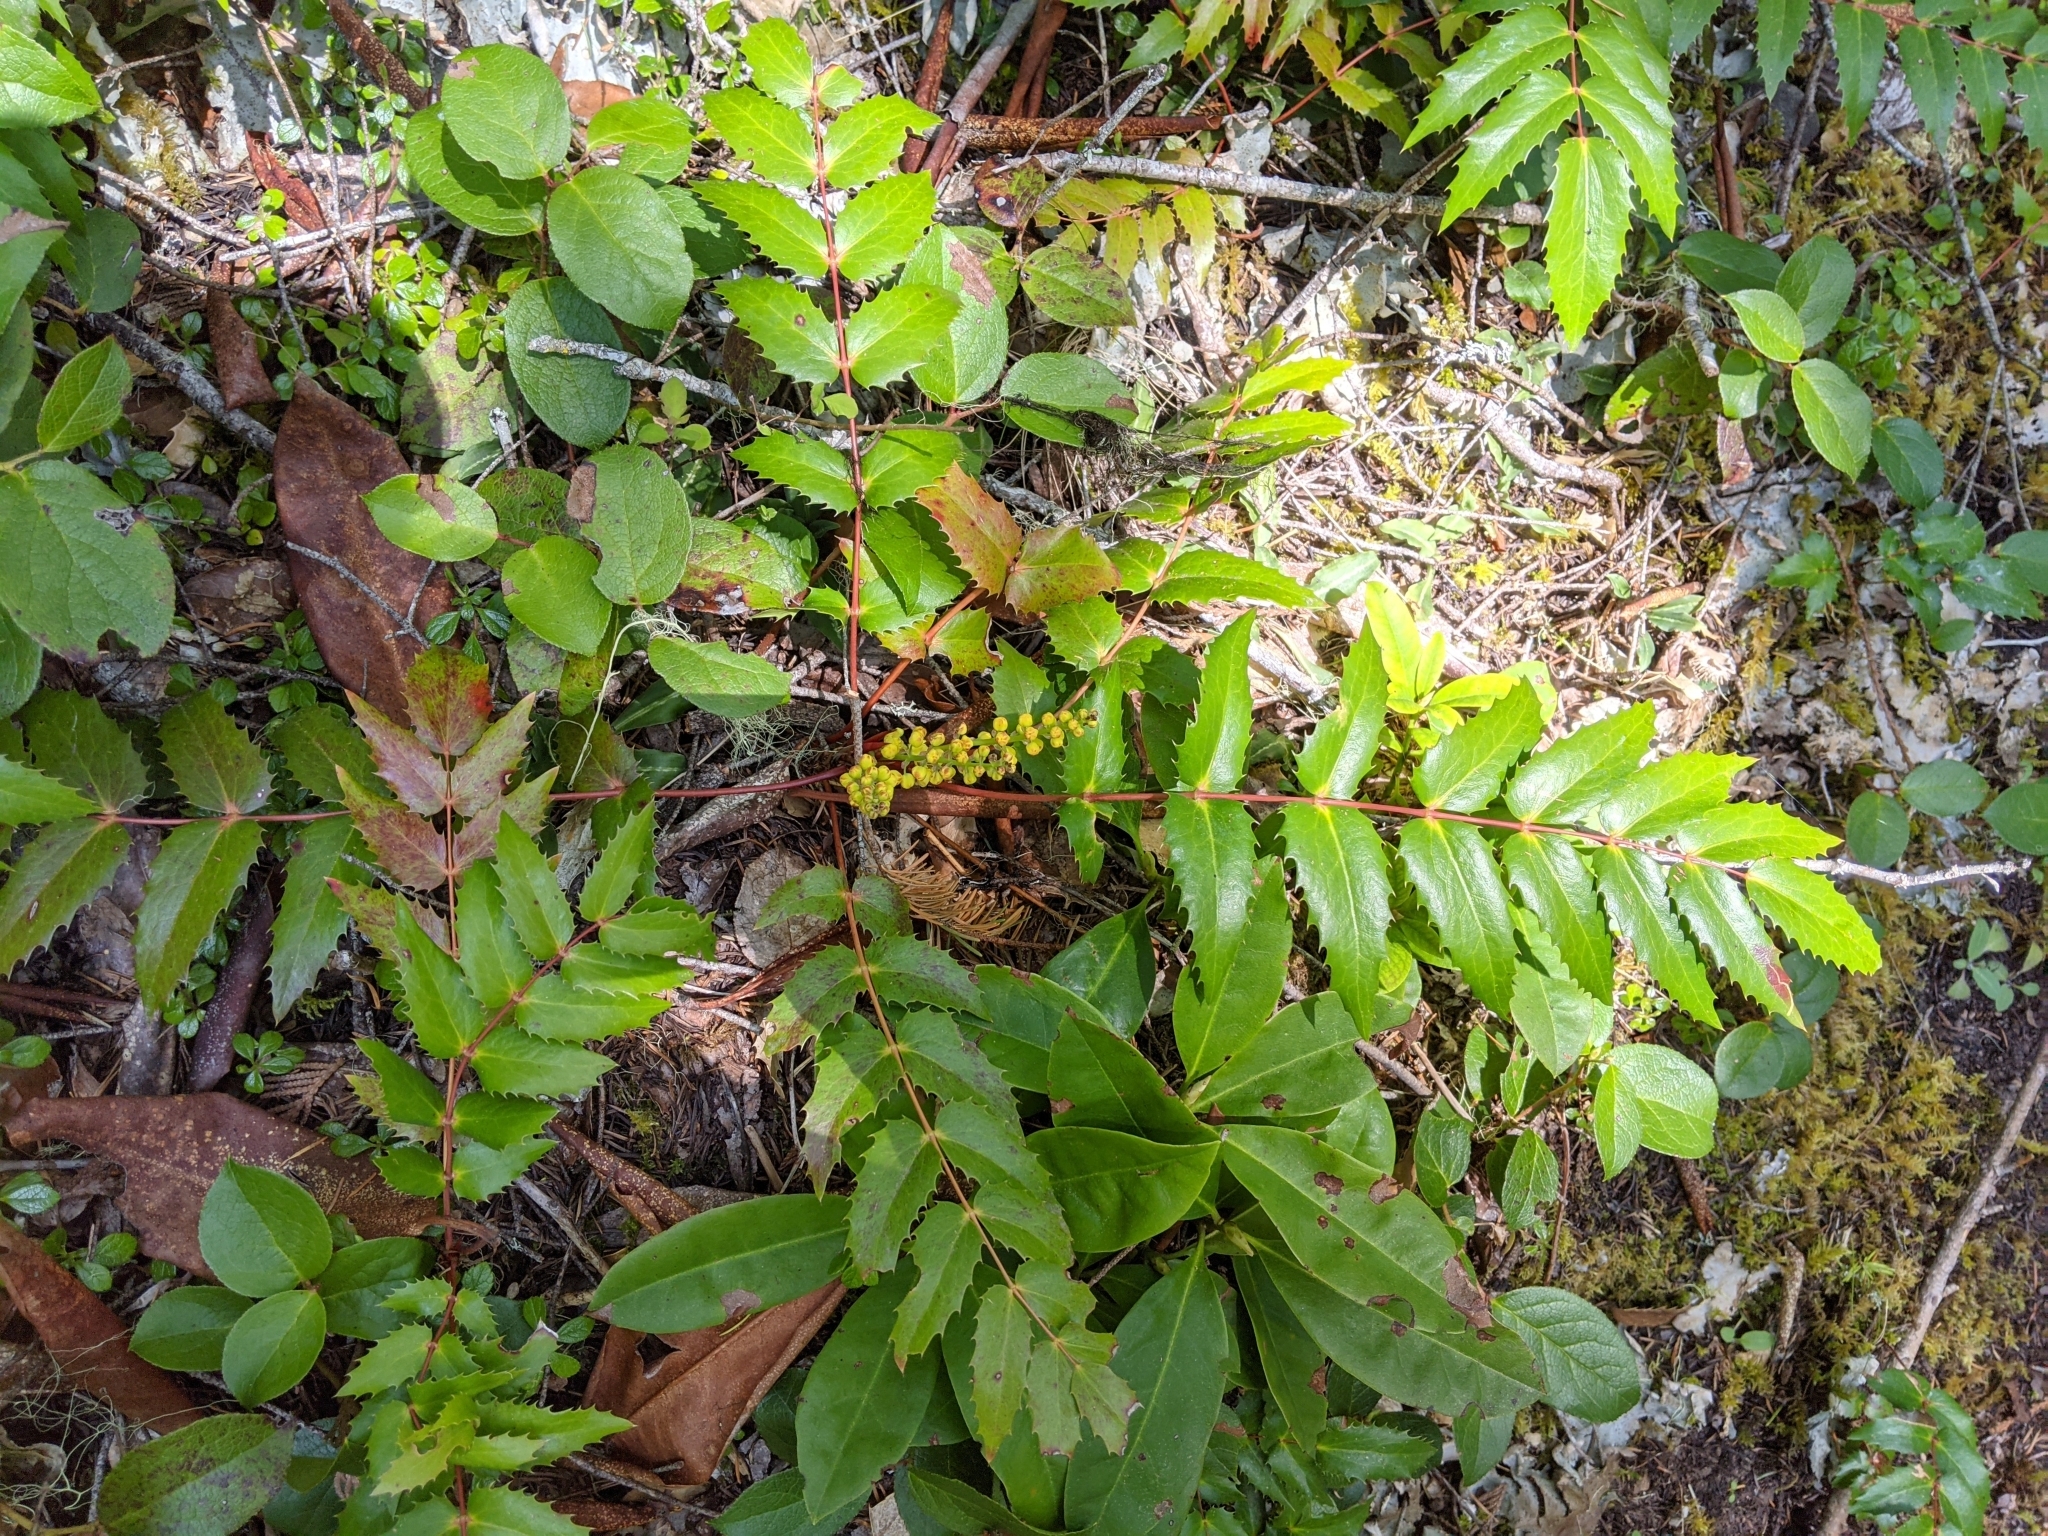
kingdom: Plantae
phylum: Tracheophyta
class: Magnoliopsida
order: Ranunculales
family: Berberidaceae
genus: Mahonia
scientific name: Mahonia nervosa
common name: Cascade oregon-grape
